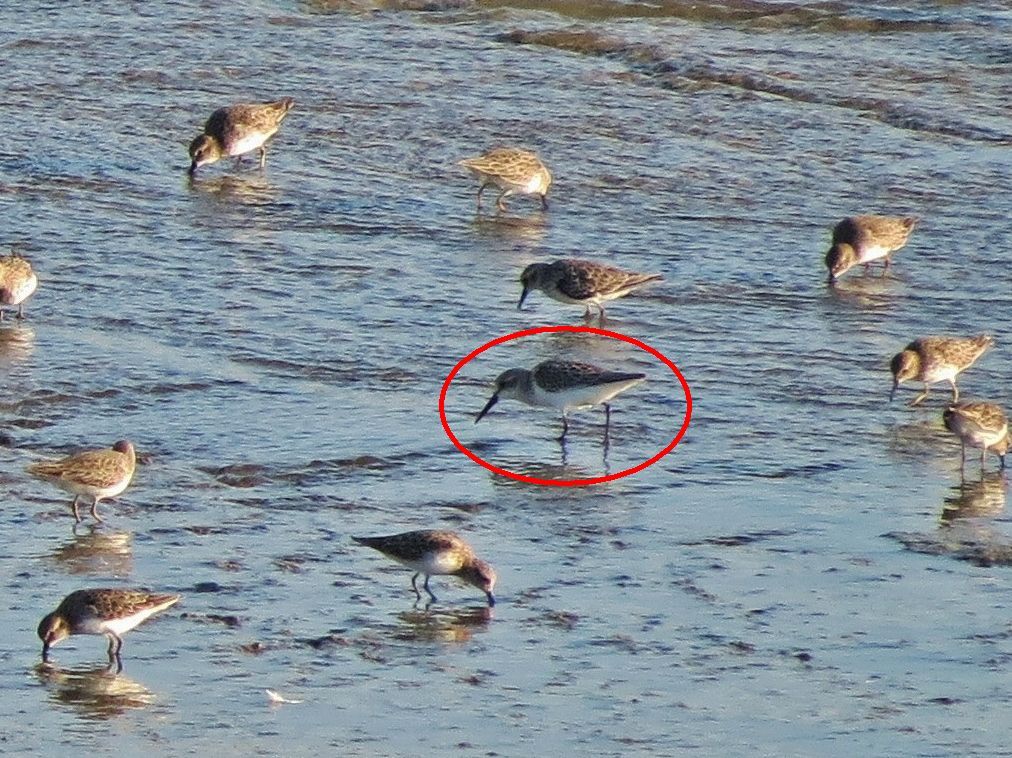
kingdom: Animalia
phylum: Chordata
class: Aves
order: Charadriiformes
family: Scolopacidae
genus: Calidris
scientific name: Calidris mauri
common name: Western sandpiper
